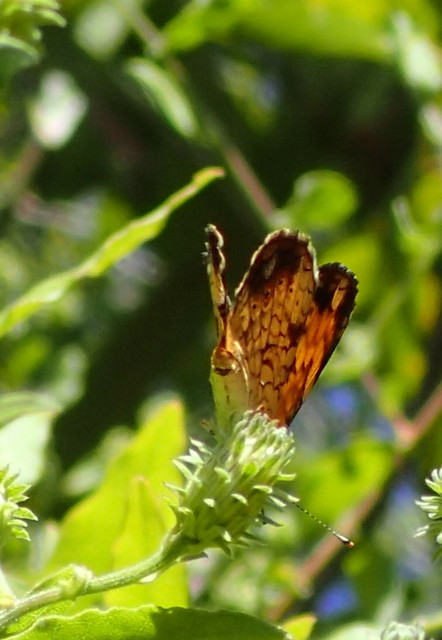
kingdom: Animalia
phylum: Arthropoda
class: Insecta
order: Lepidoptera
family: Nymphalidae
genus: Phyciodes
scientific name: Phyciodes tharos
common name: Pearl crescent
